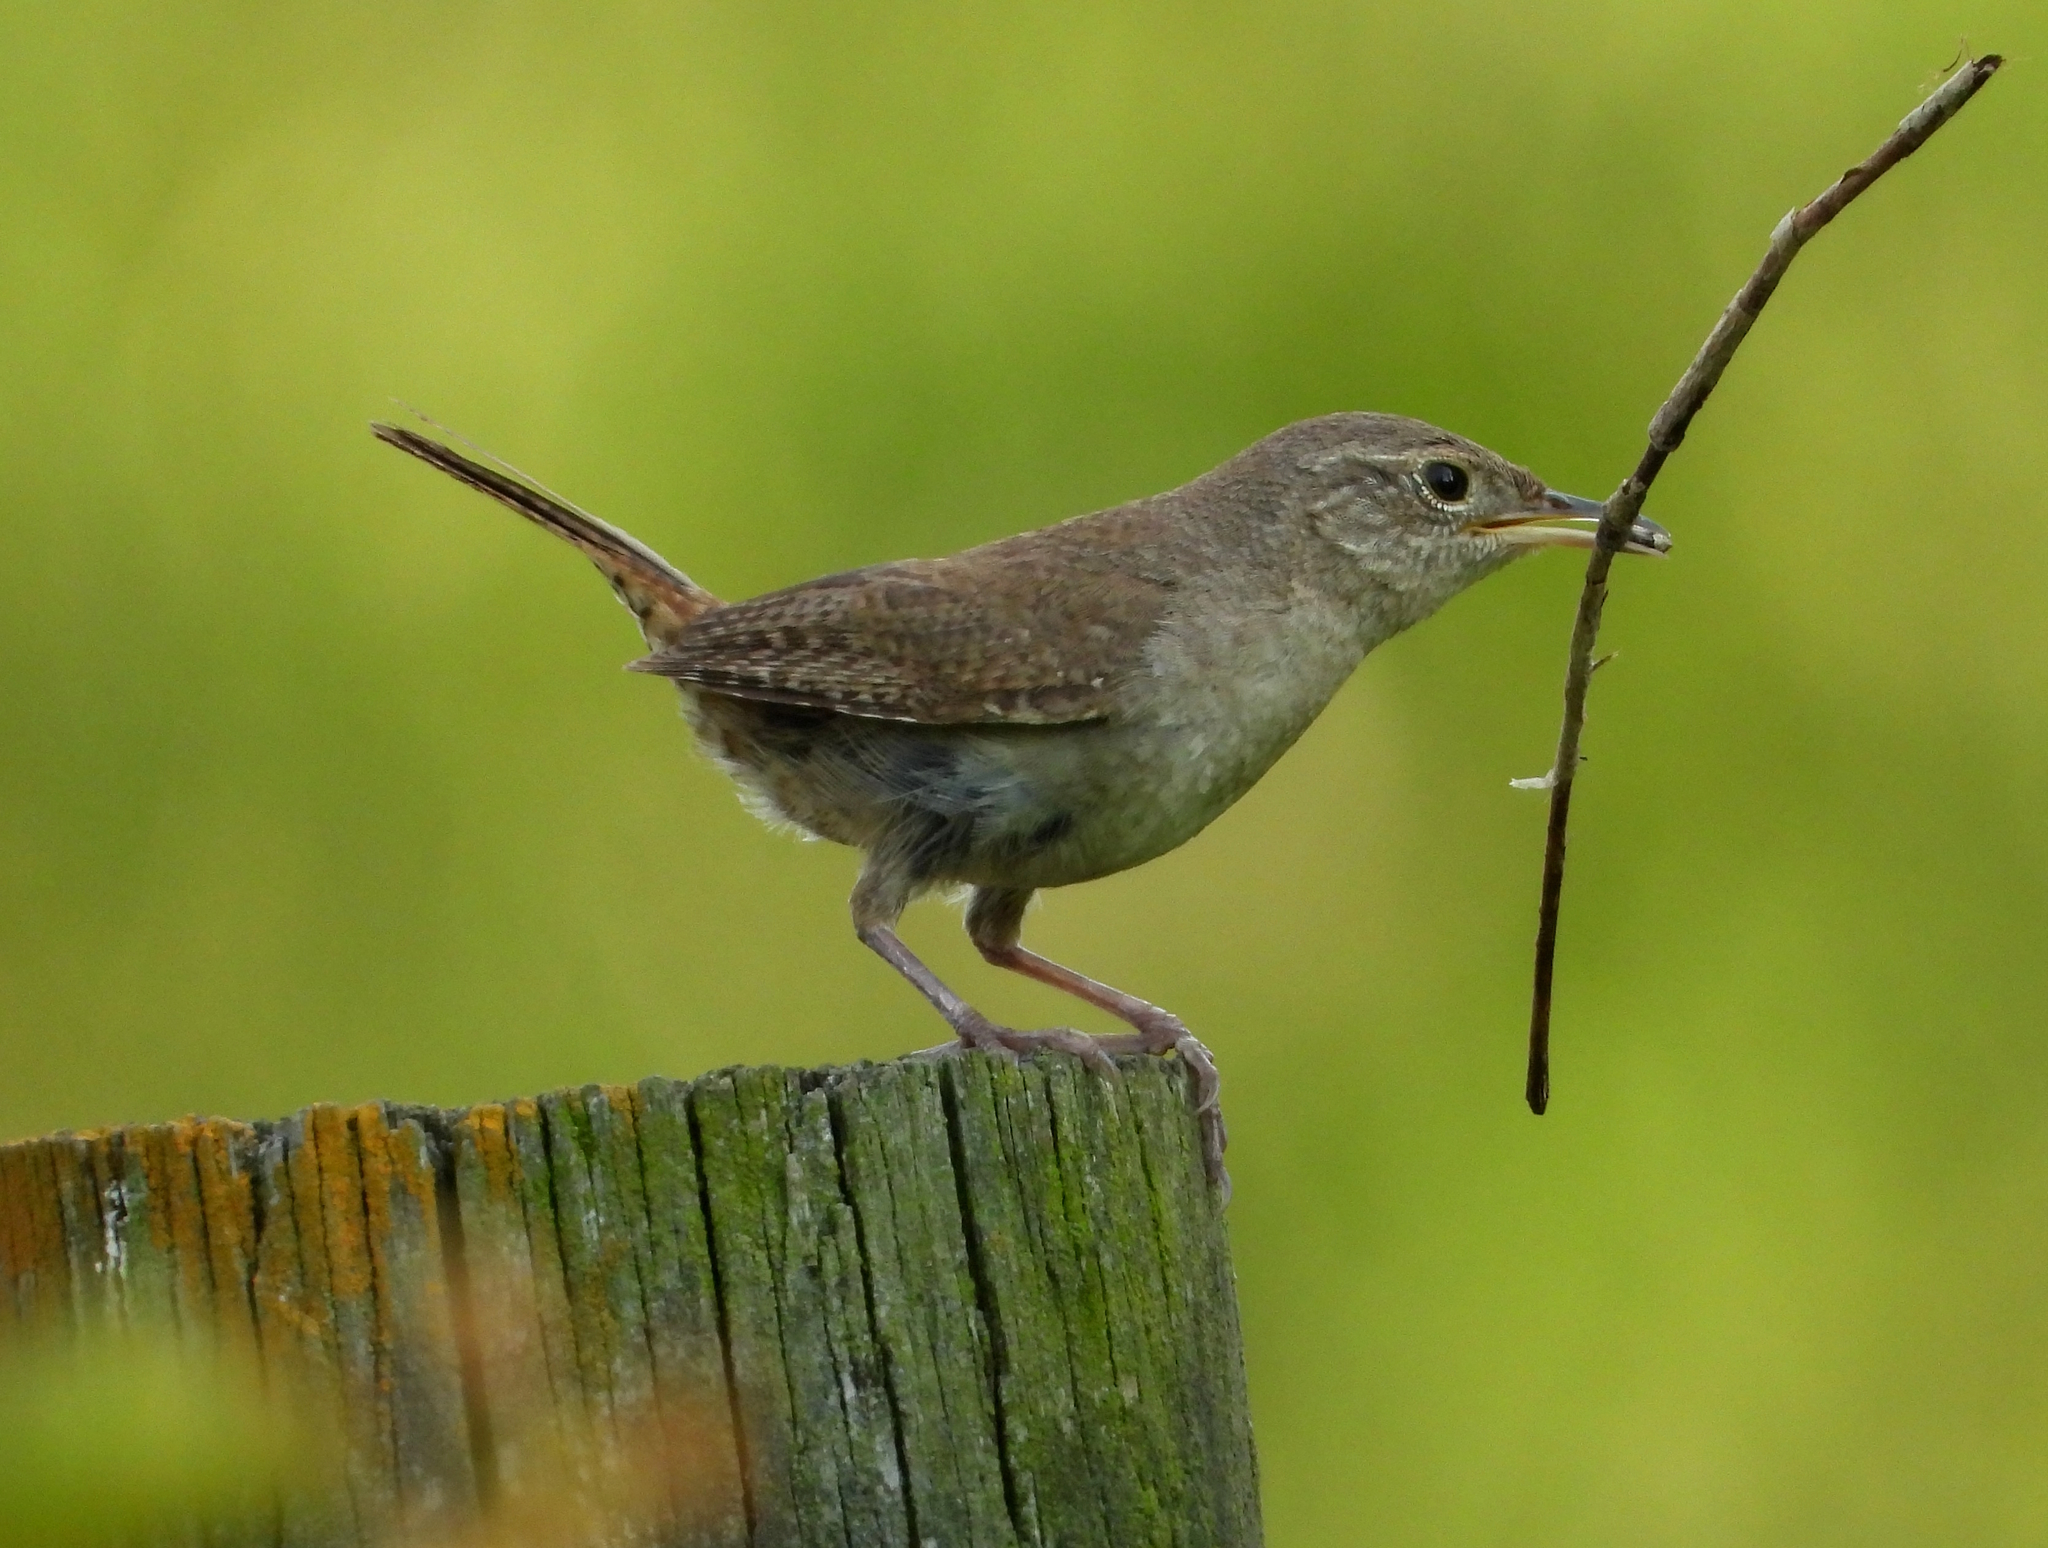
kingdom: Animalia
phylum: Chordata
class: Aves
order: Passeriformes
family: Troglodytidae
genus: Troglodytes
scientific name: Troglodytes aedon
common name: House wren
